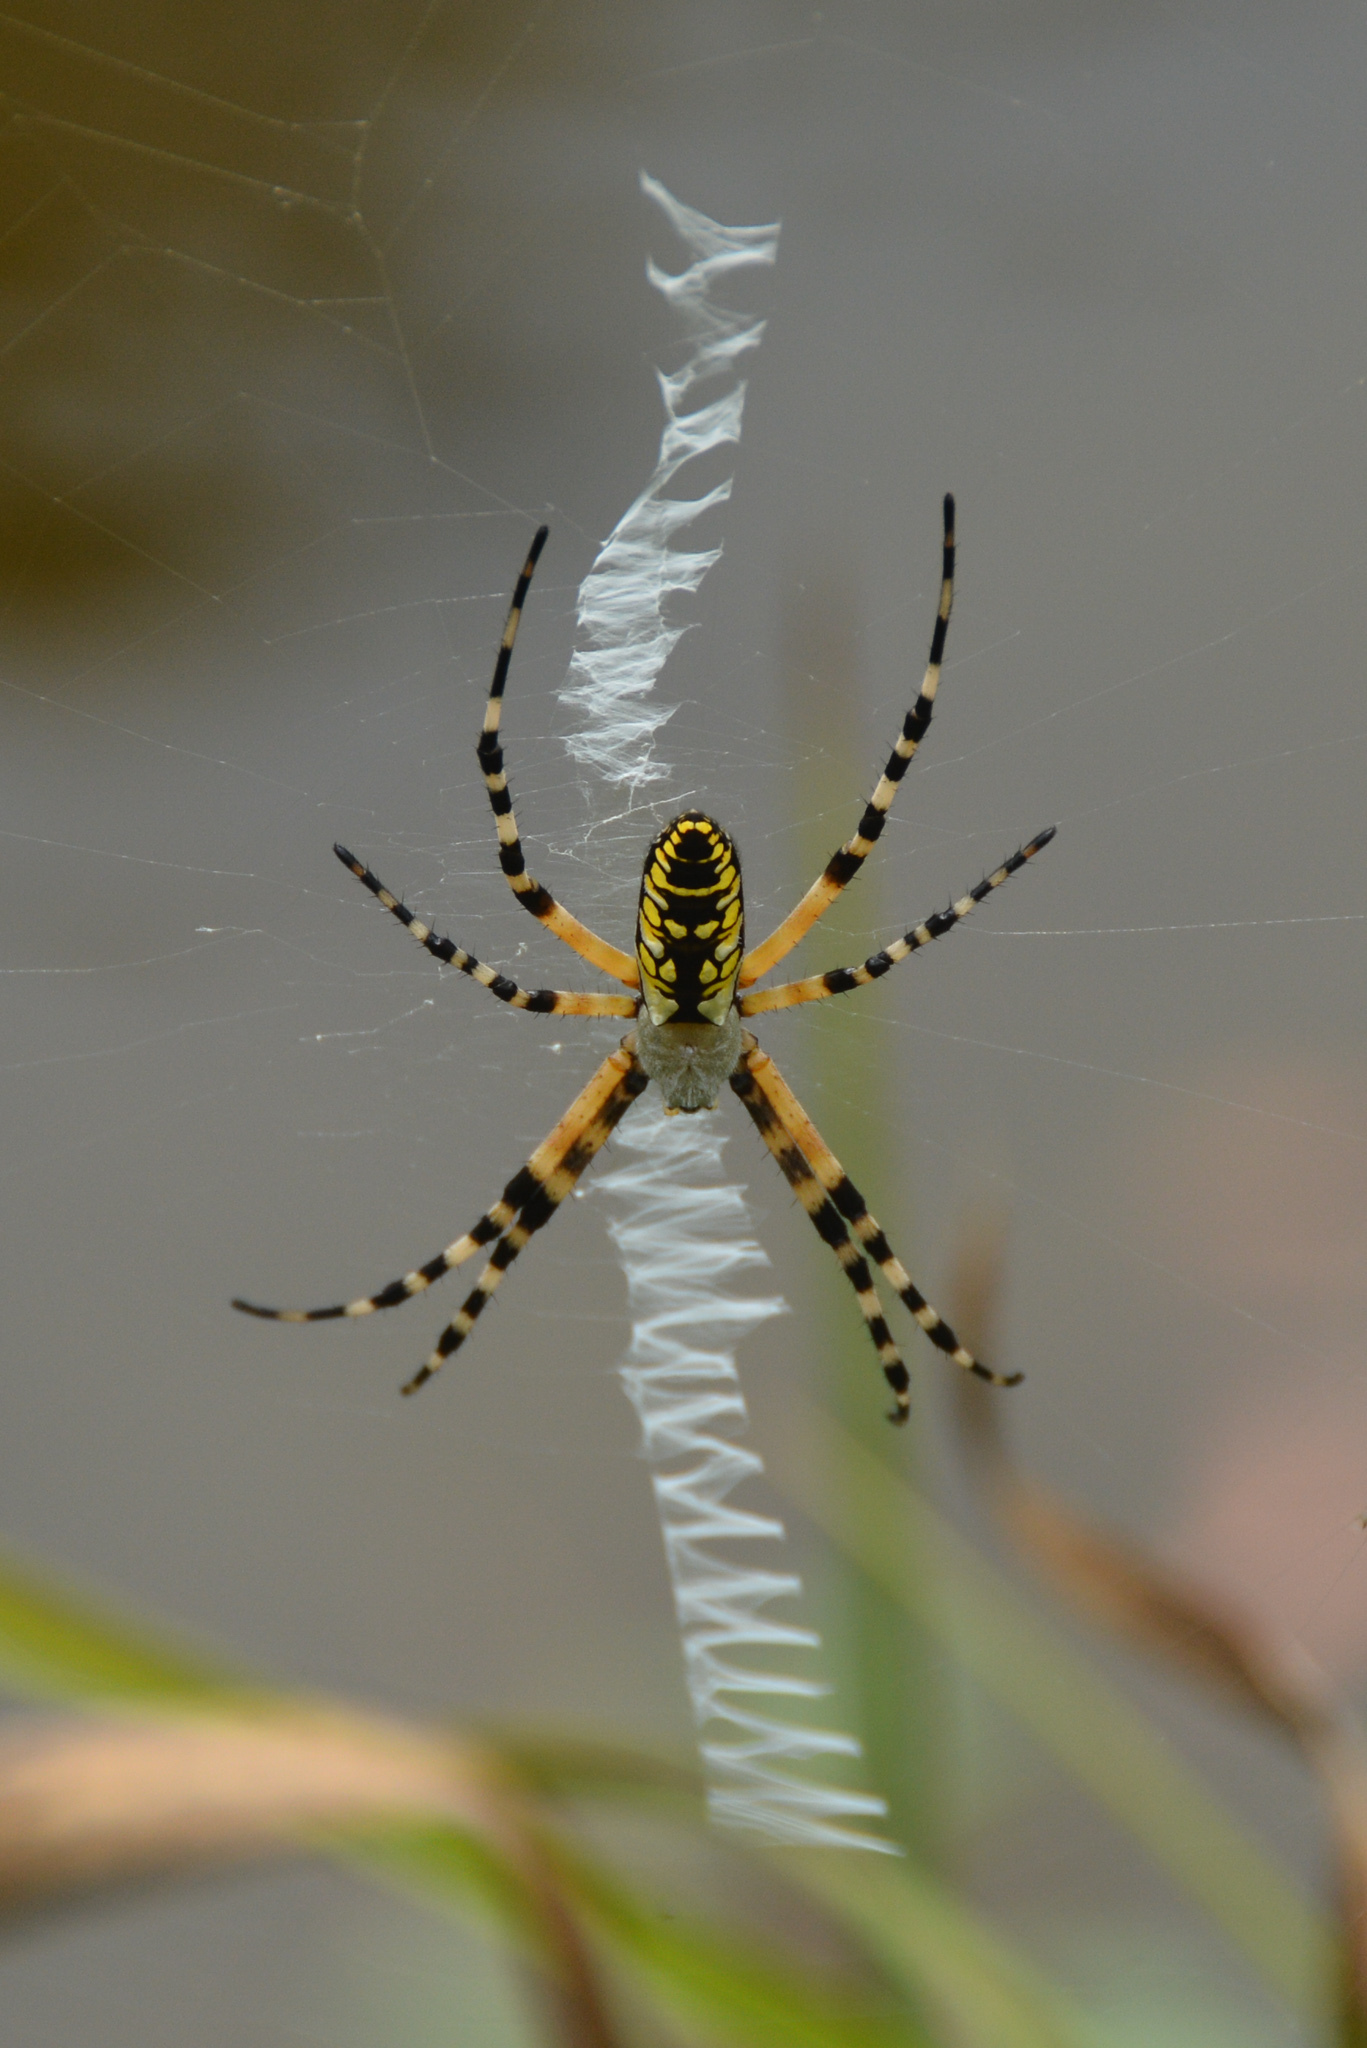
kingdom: Animalia
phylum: Arthropoda
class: Arachnida
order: Araneae
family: Araneidae
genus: Argiope
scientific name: Argiope aurantia
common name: Orb weavers
